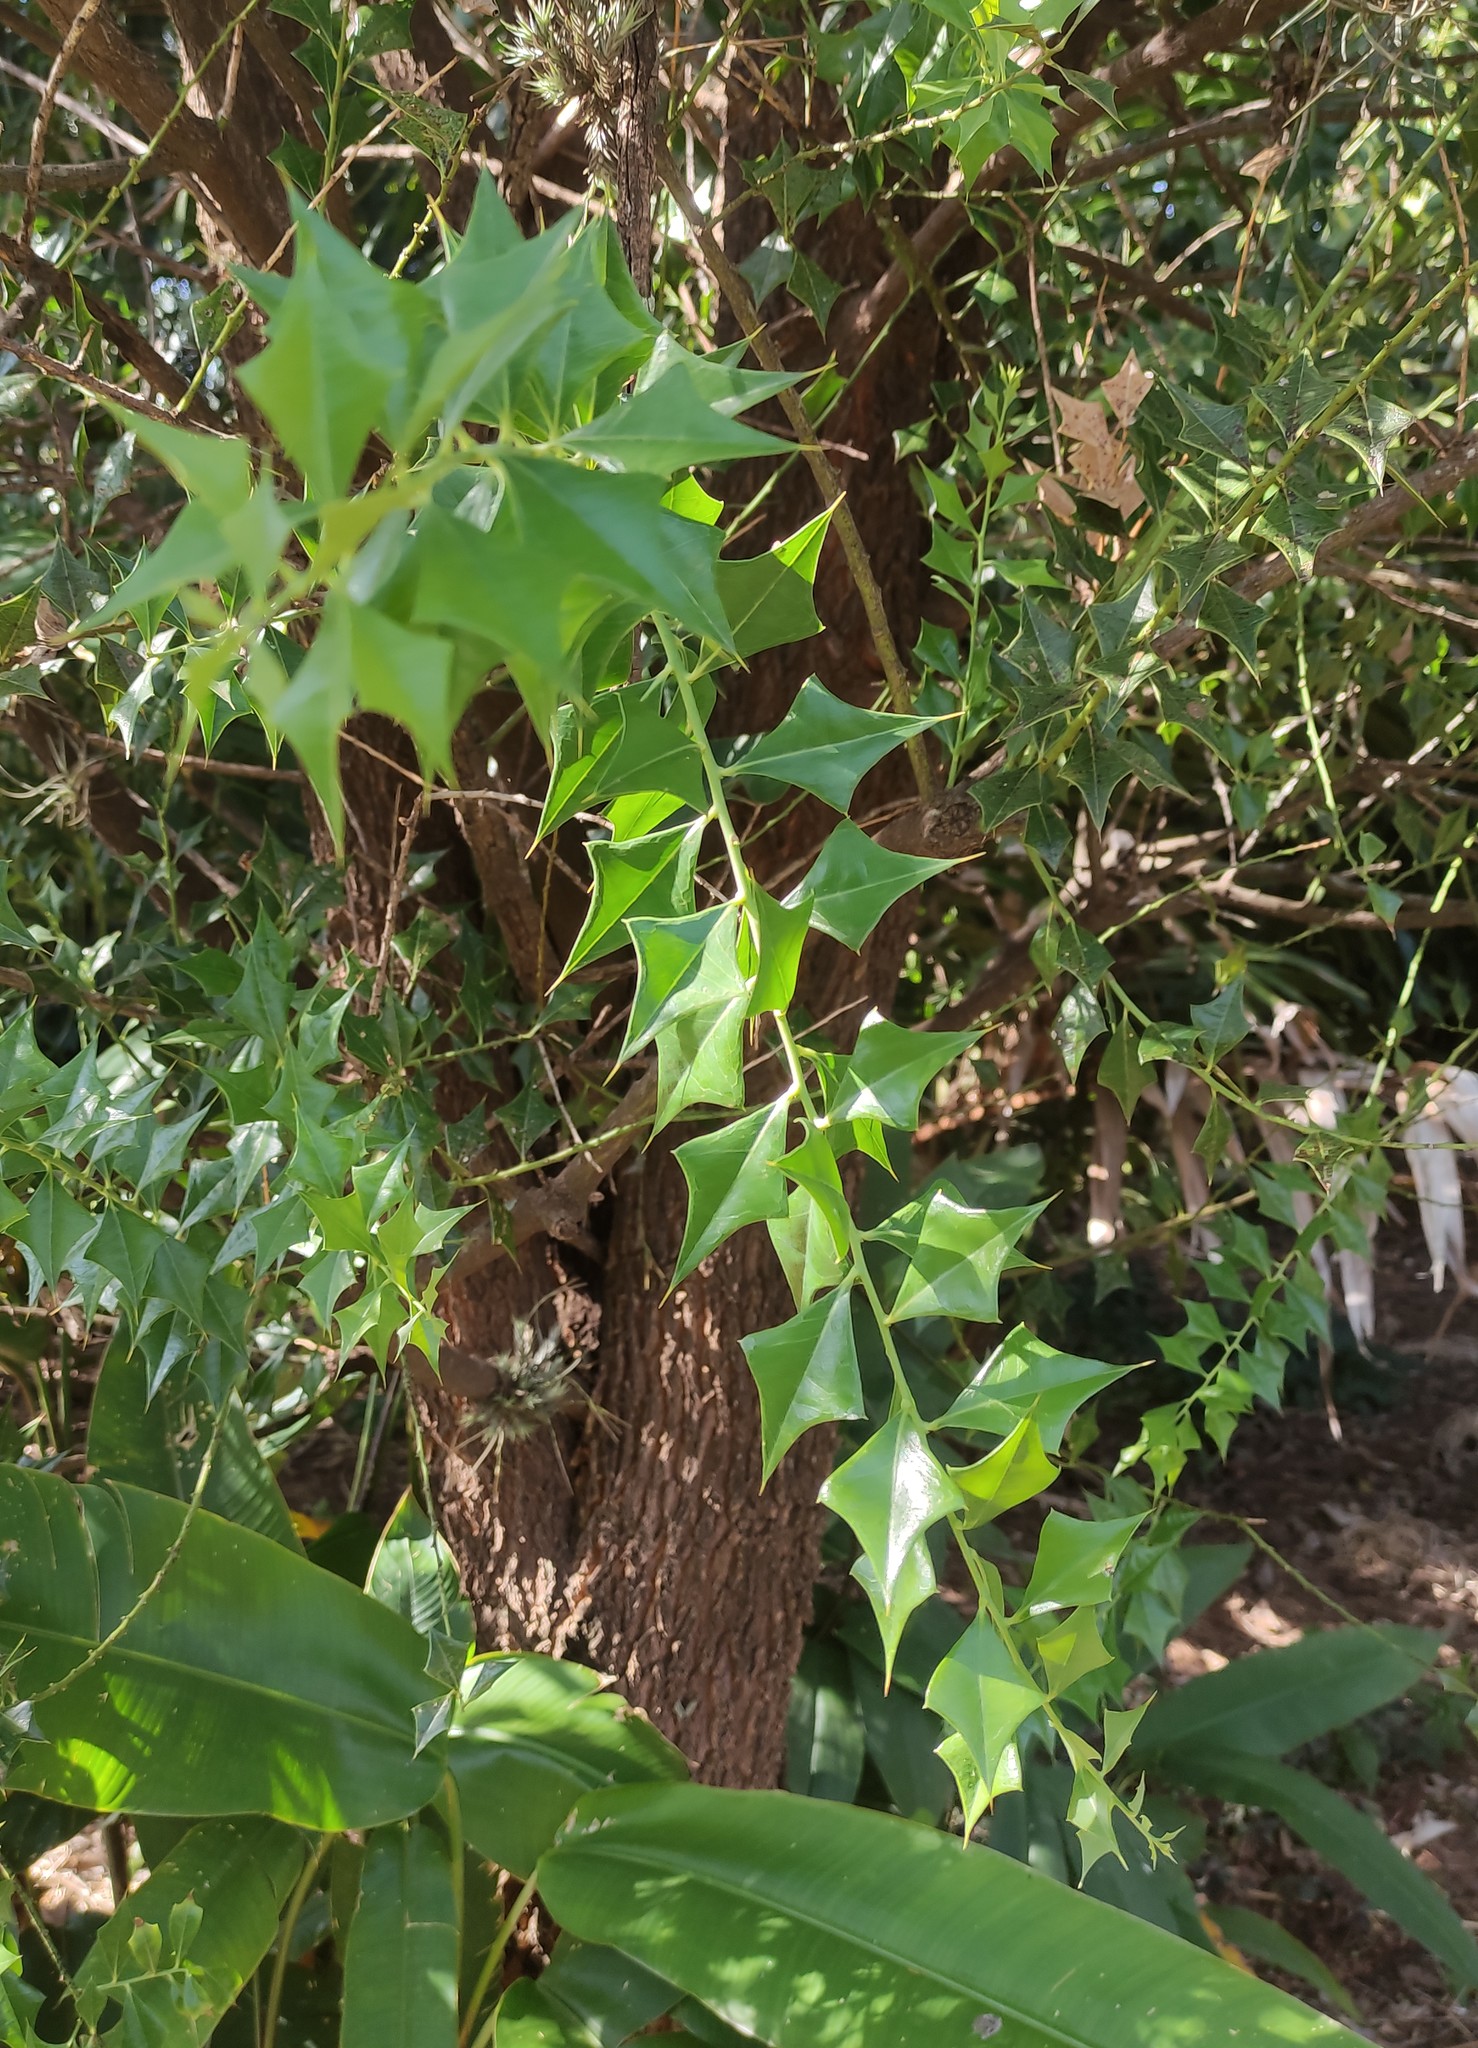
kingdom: Plantae
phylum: Tracheophyta
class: Magnoliopsida
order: Celastrales
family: Celastraceae
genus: Monteverdia
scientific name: Monteverdia
